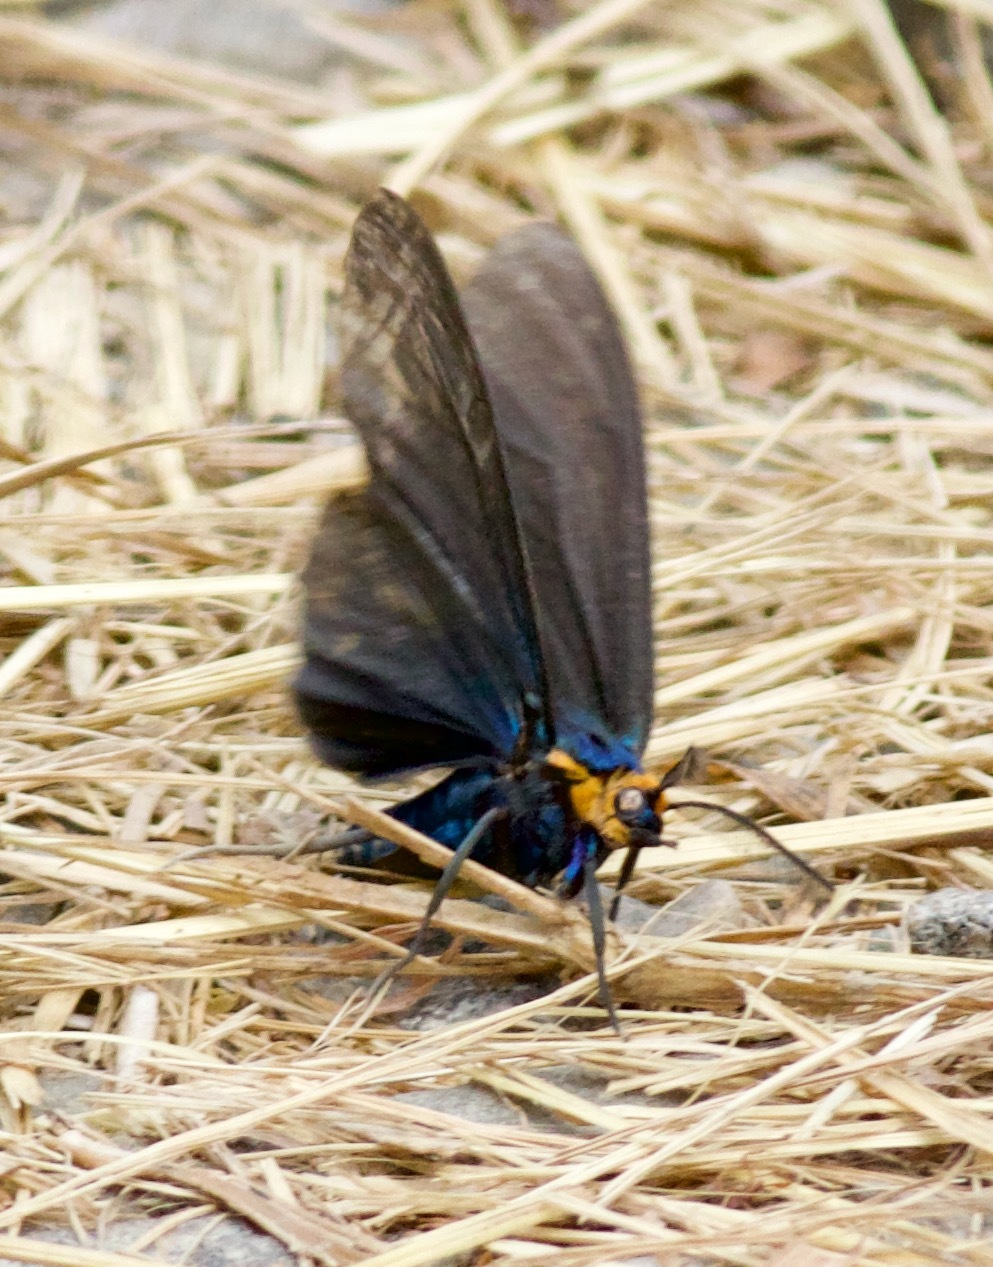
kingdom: Animalia
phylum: Arthropoda
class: Insecta
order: Lepidoptera
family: Erebidae
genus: Ctenucha
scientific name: Ctenucha virginica
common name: Virginia ctenucha moth
